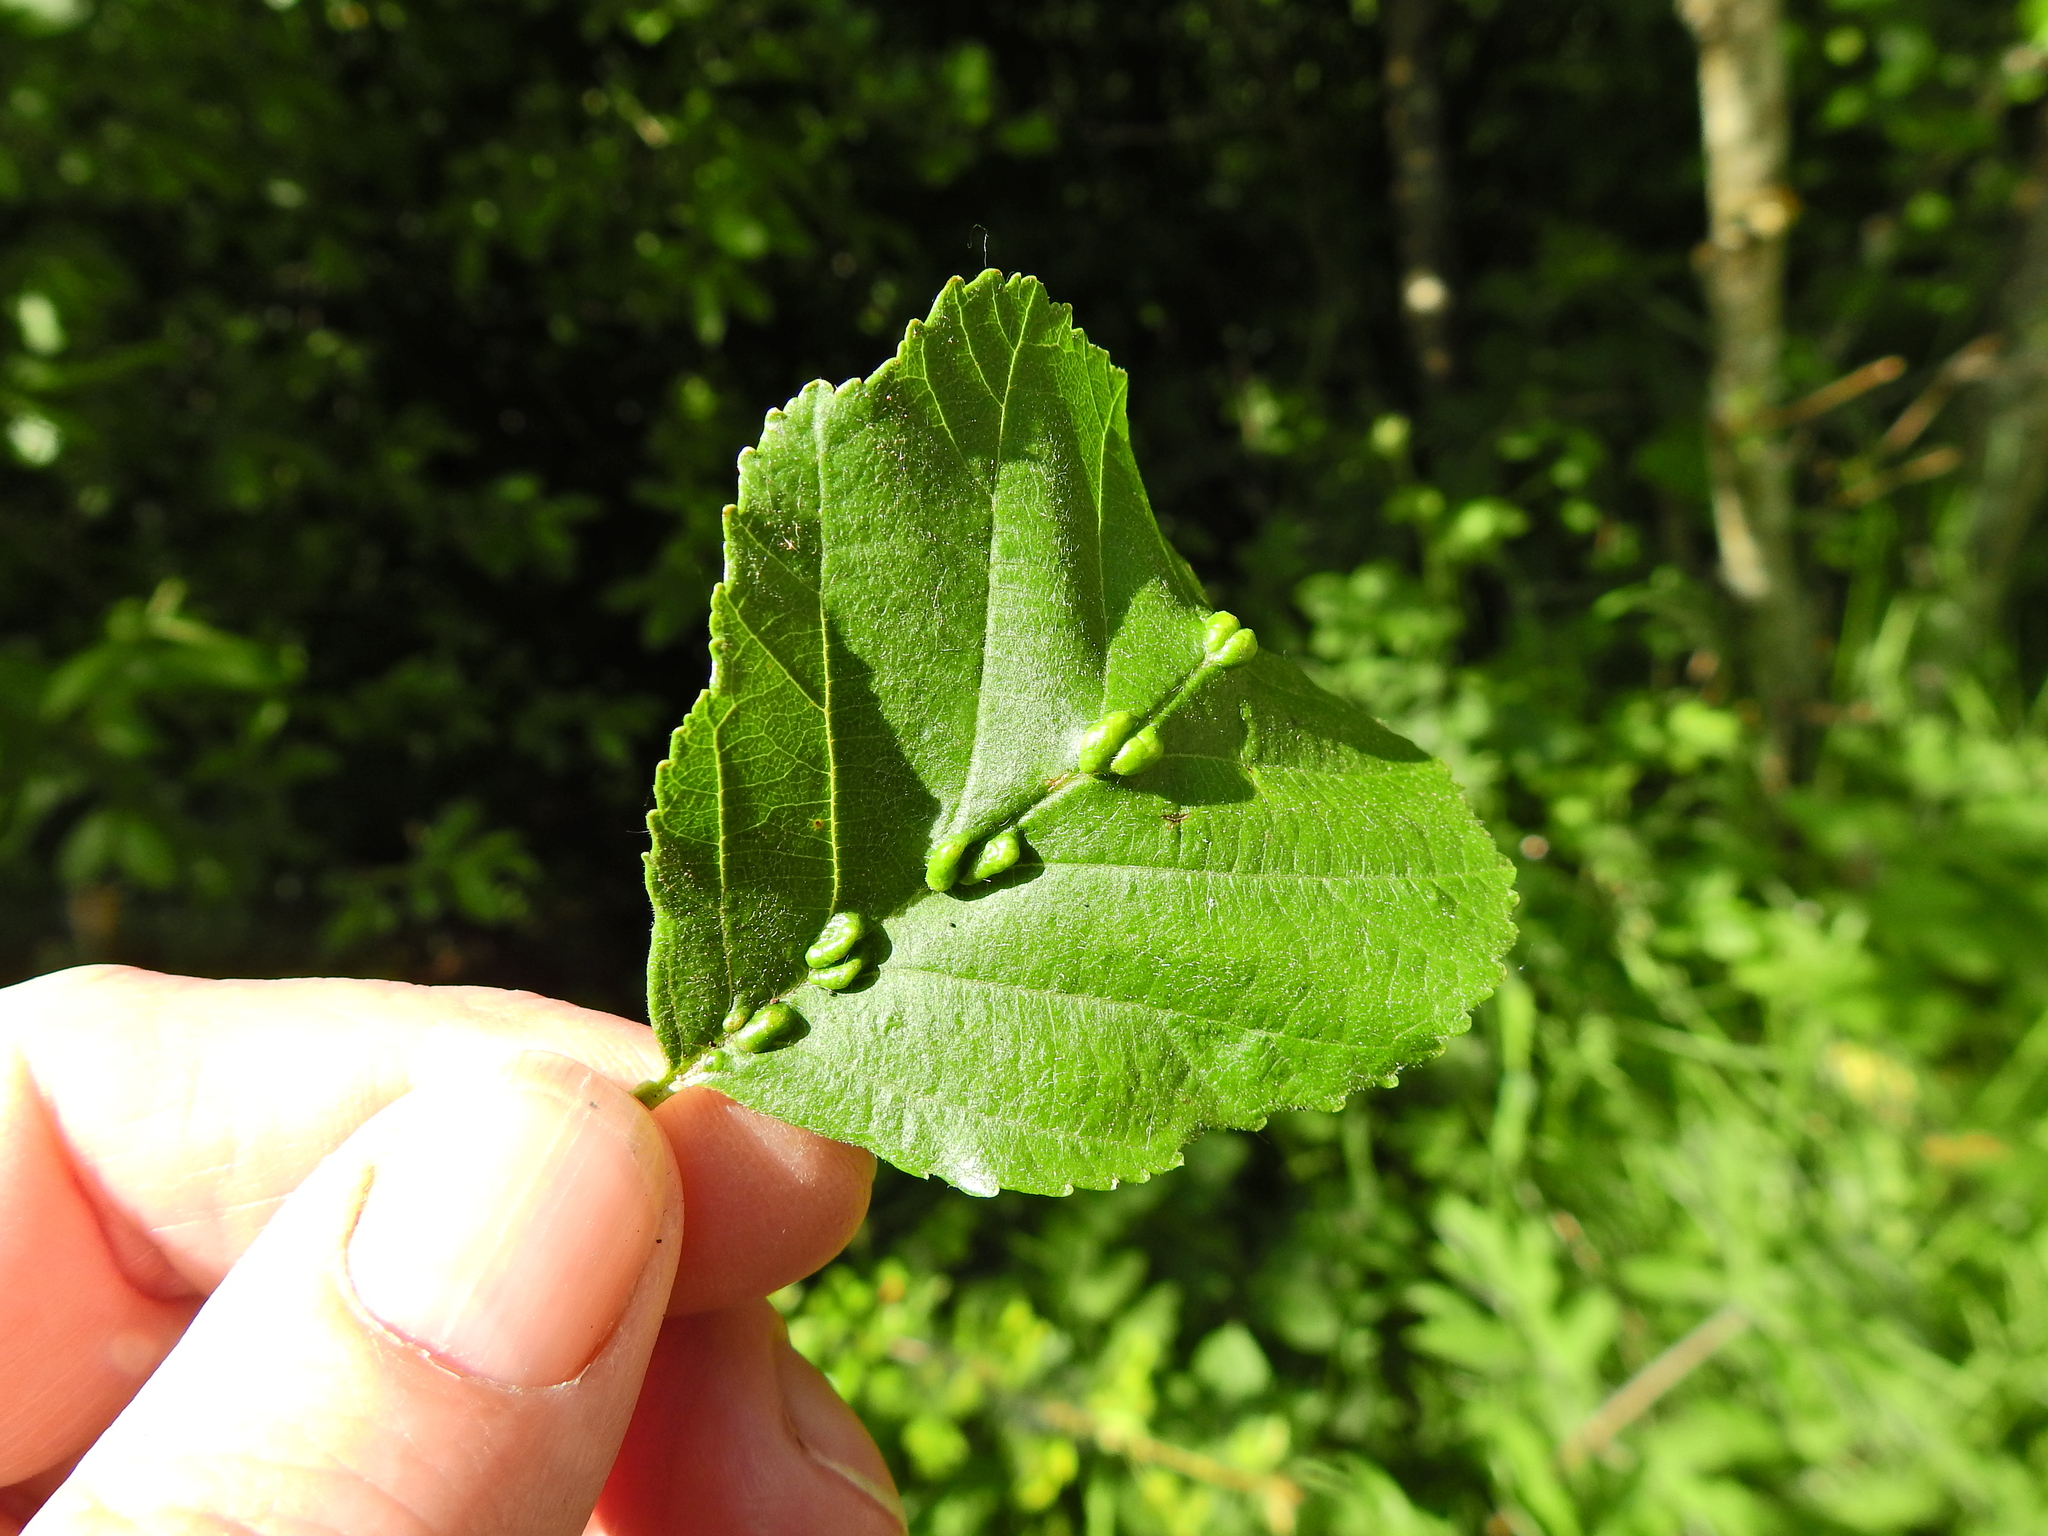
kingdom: Animalia
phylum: Arthropoda
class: Arachnida
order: Trombidiformes
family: Eriophyidae
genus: Eriophyes
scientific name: Eriophyes inangulis
